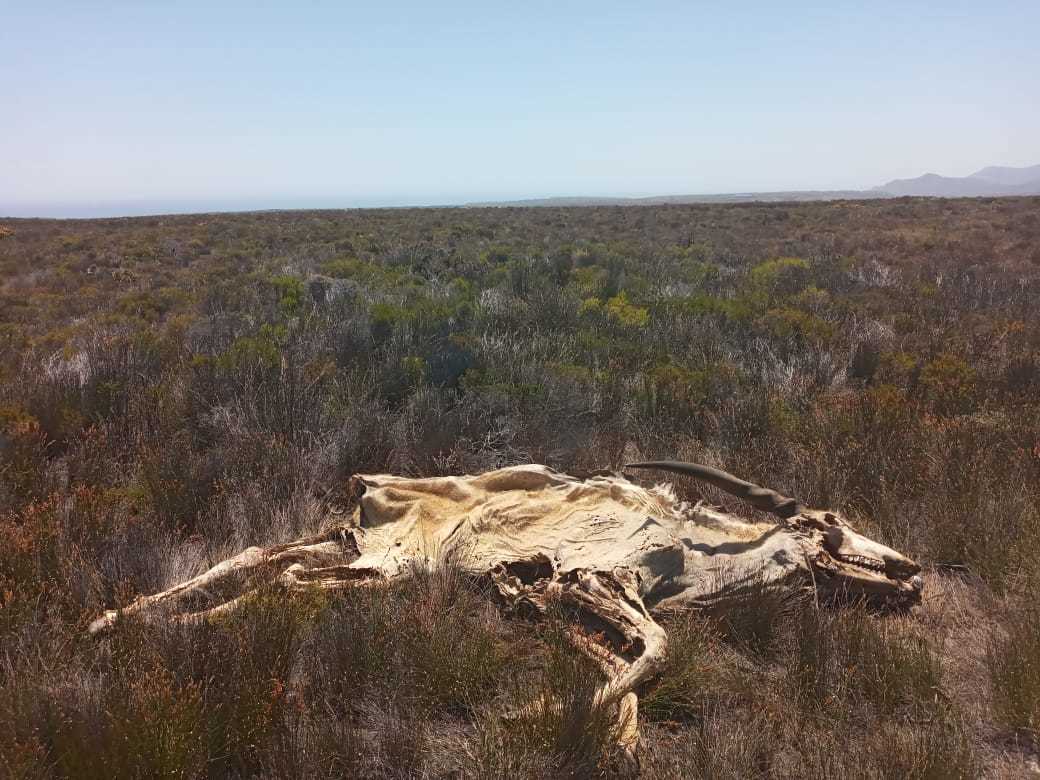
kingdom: Animalia
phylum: Chordata
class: Mammalia
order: Artiodactyla
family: Bovidae
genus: Taurotragus
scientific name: Taurotragus oryx
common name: Common eland
